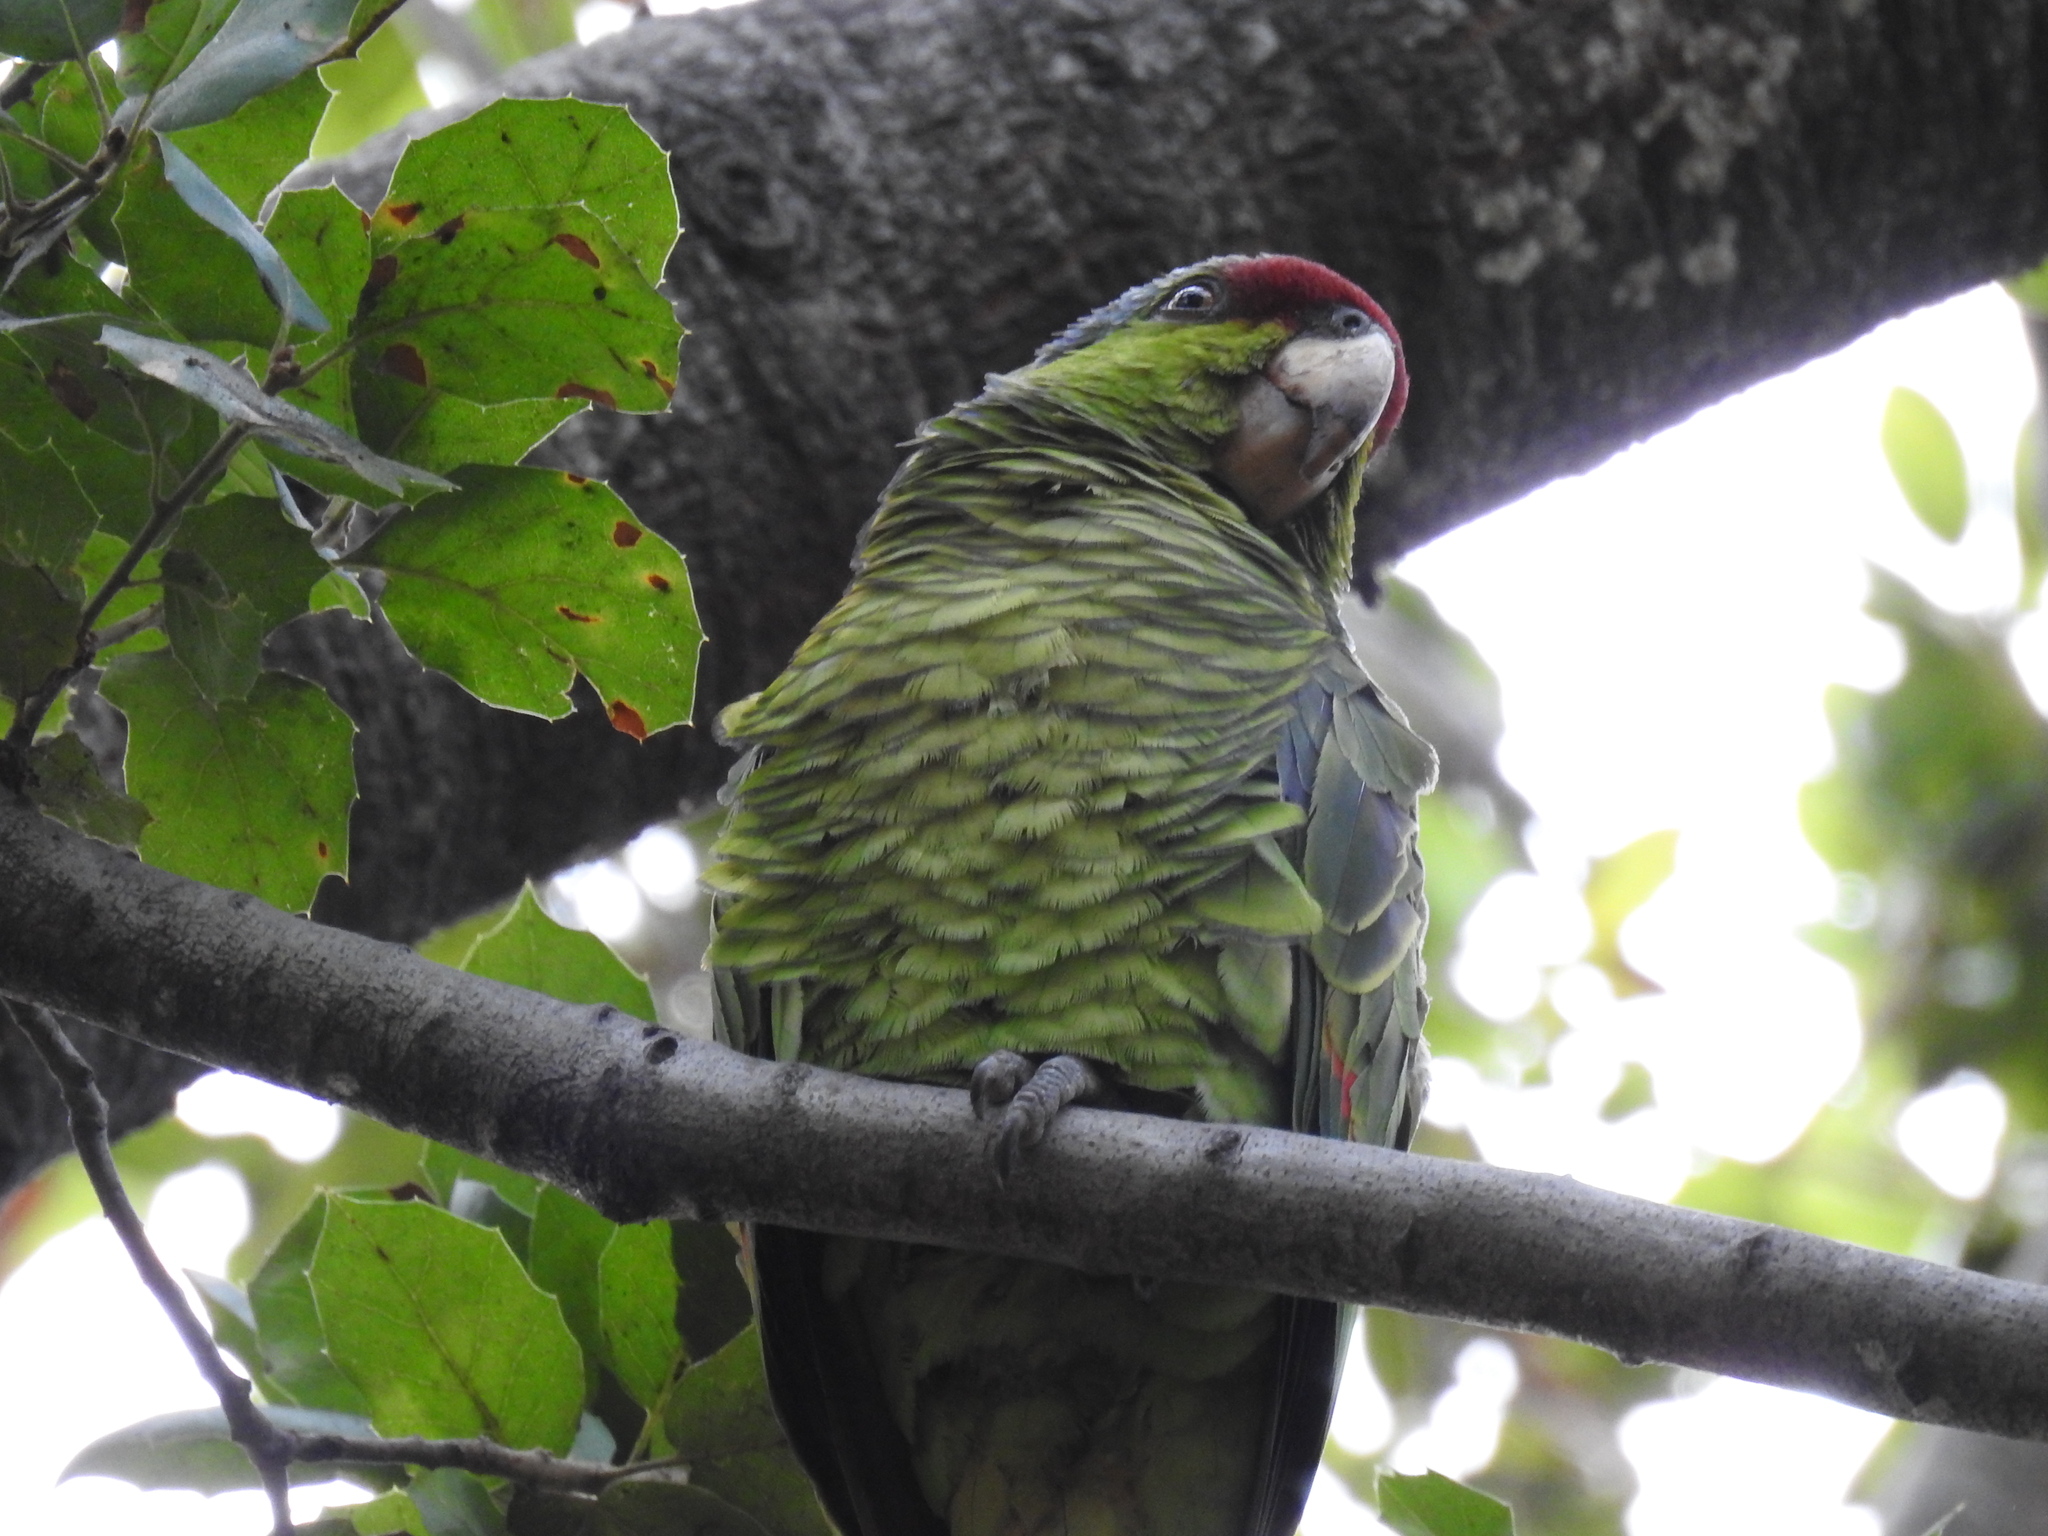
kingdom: Animalia
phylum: Chordata
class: Aves
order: Psittaciformes
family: Psittacidae
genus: Amazona
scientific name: Amazona finschi
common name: Lilac-crowned amazon
